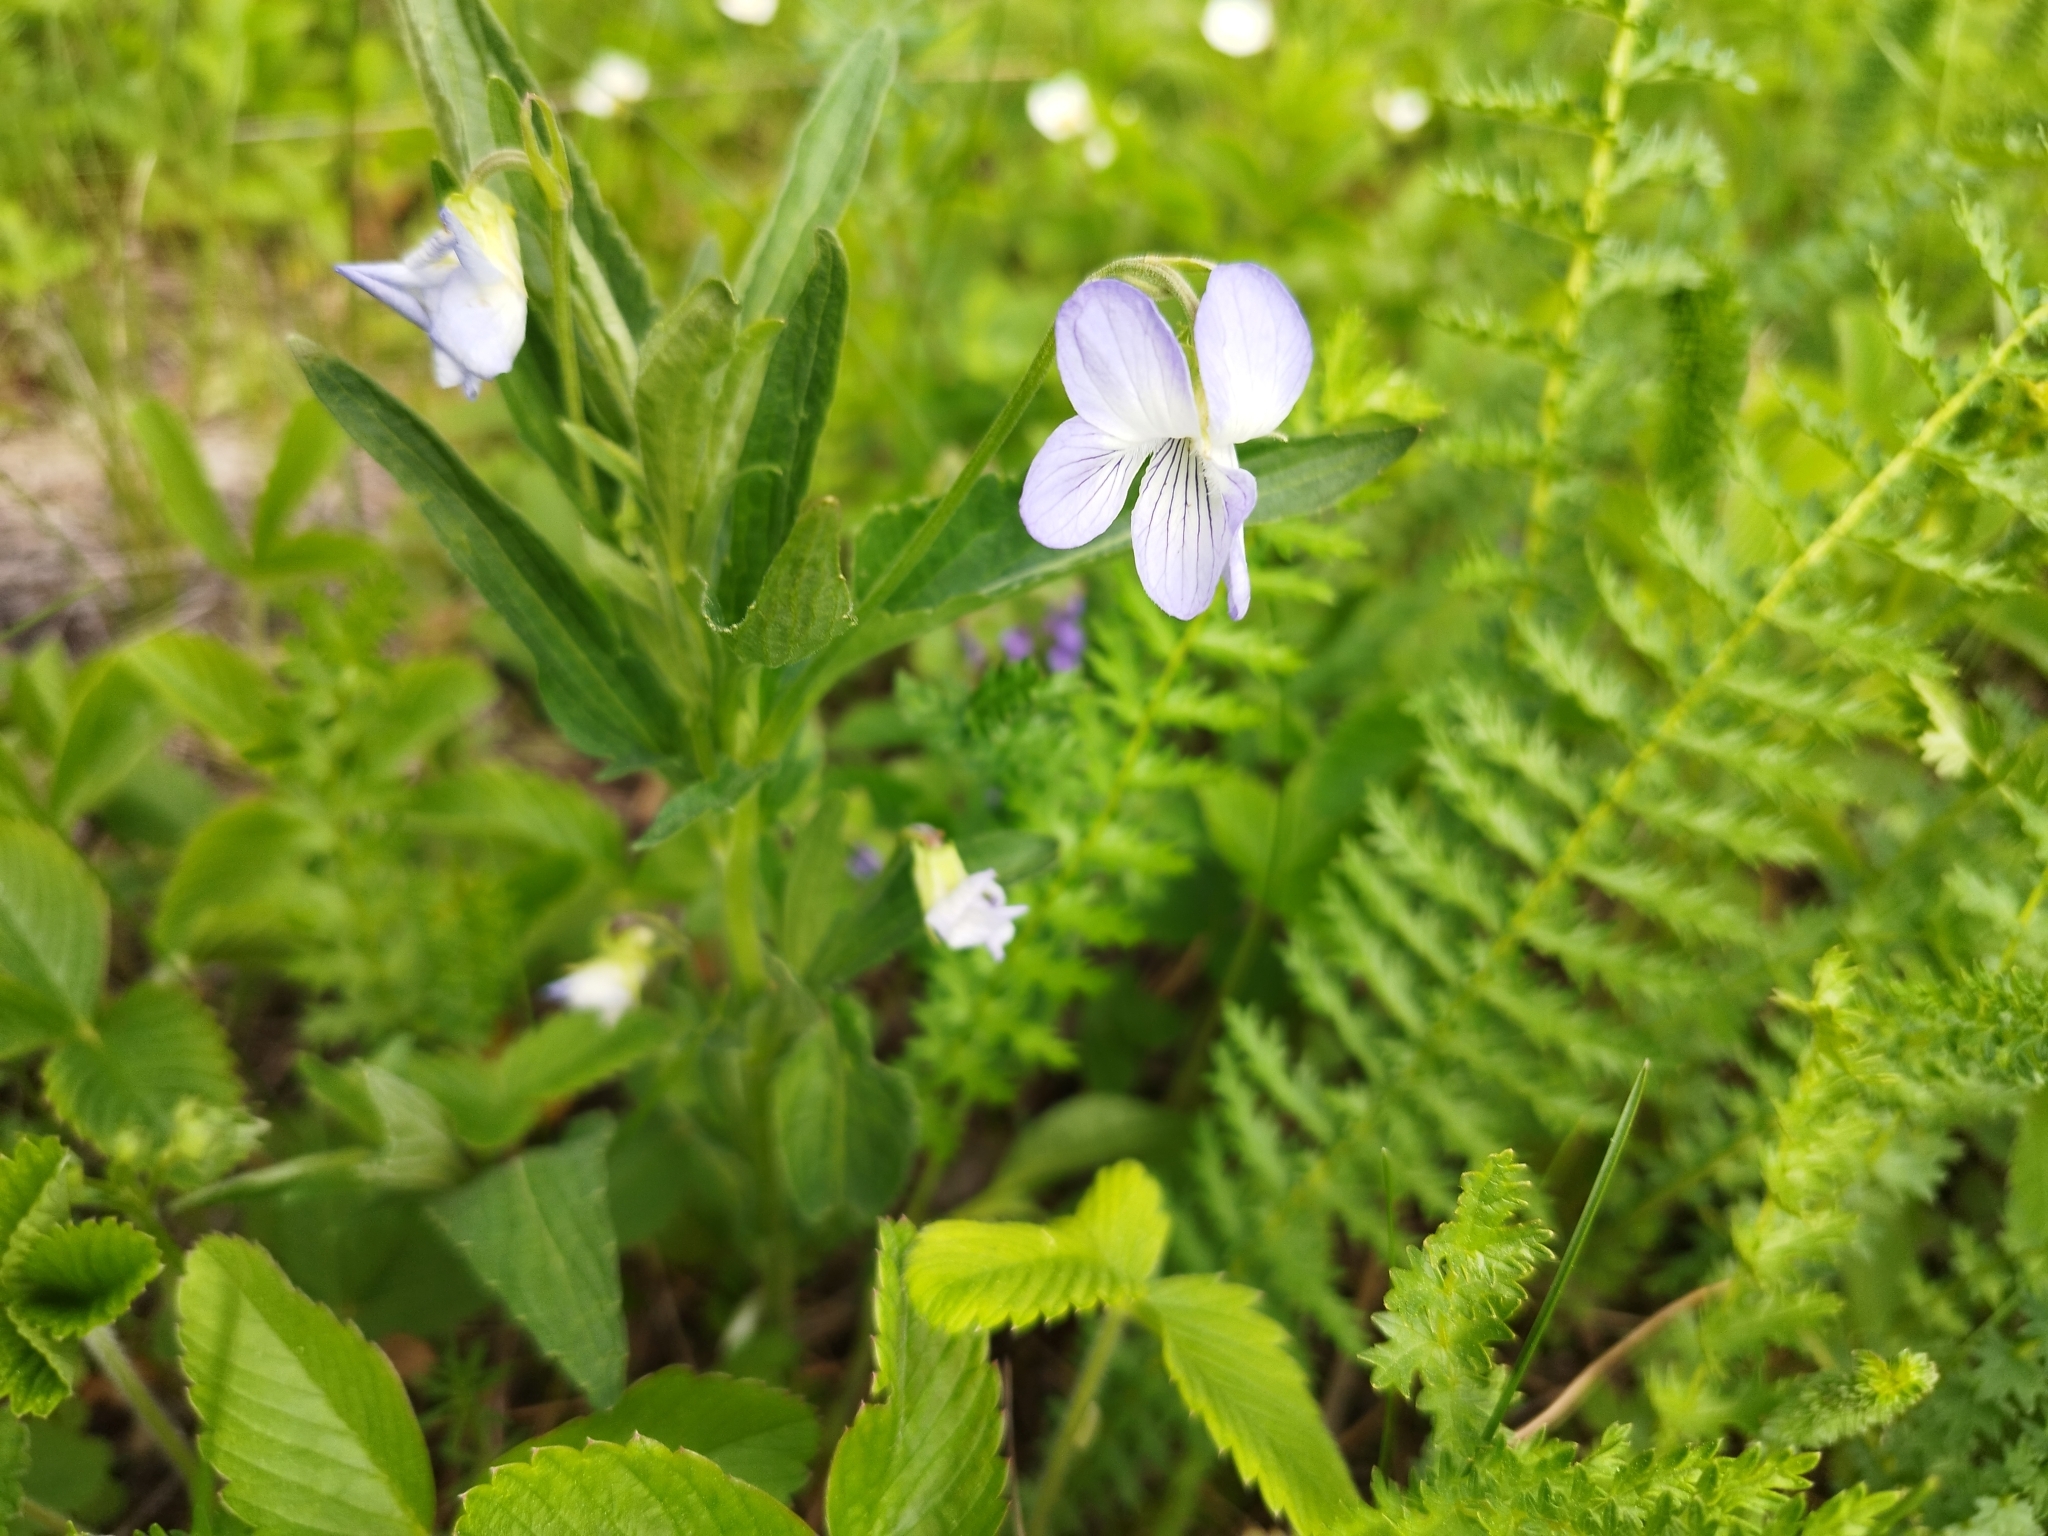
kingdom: Plantae
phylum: Tracheophyta
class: Magnoliopsida
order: Malpighiales
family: Violaceae
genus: Viola
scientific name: Viola elatior
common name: Tall violet
